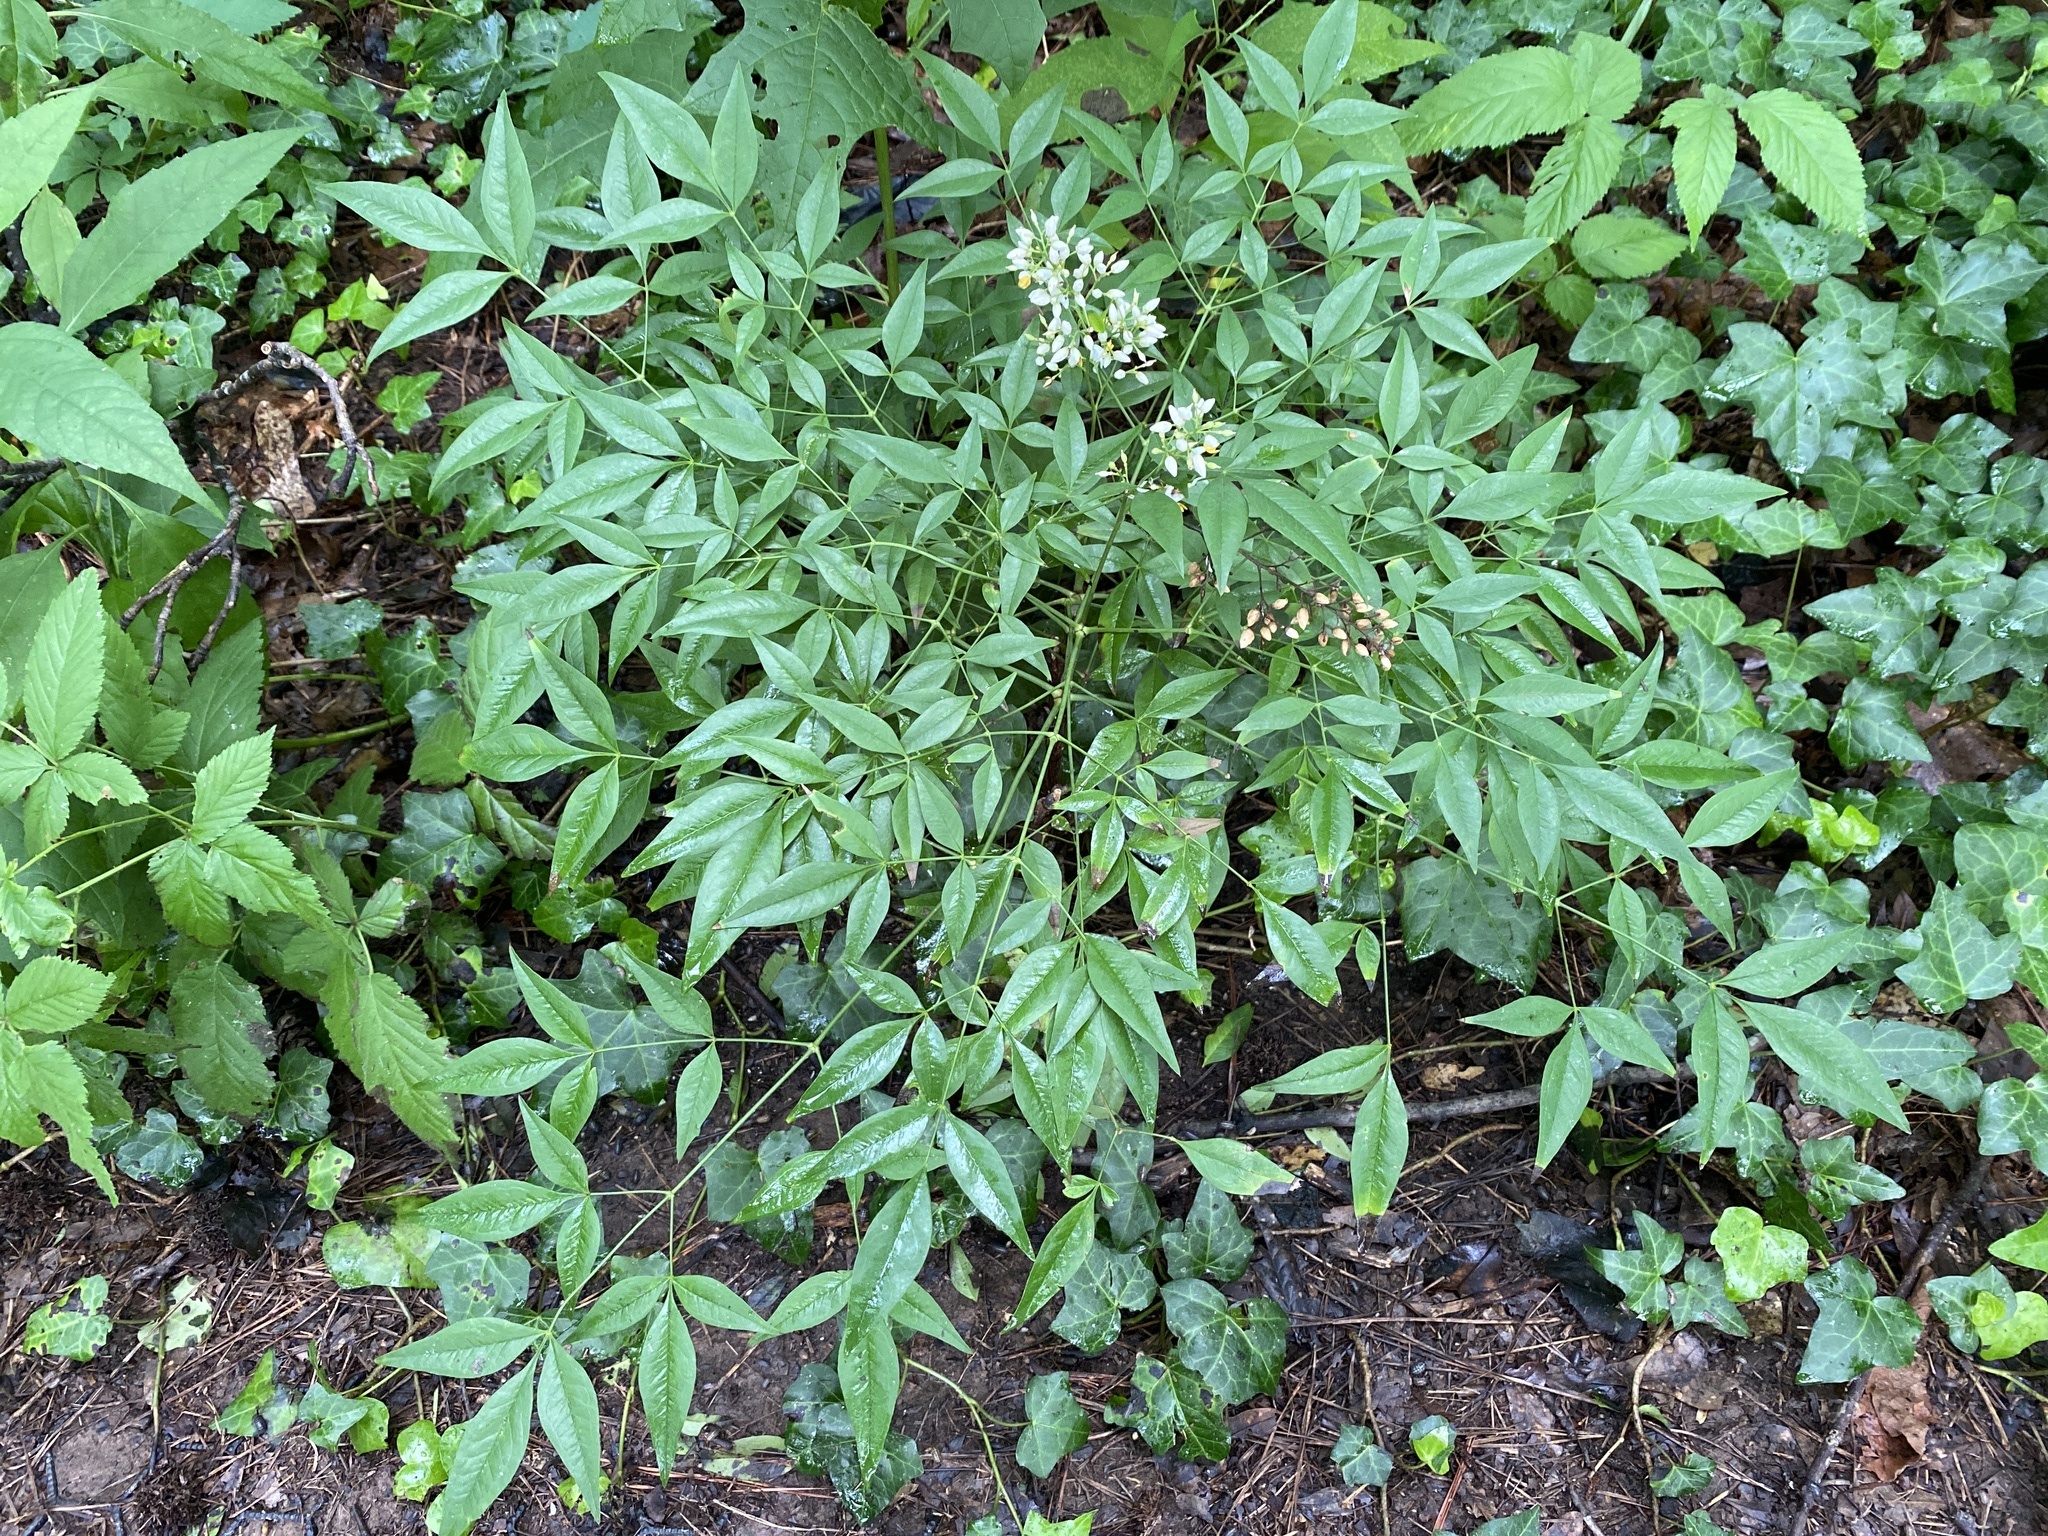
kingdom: Plantae
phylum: Tracheophyta
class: Magnoliopsida
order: Ranunculales
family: Berberidaceae
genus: Nandina
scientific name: Nandina domestica
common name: Sacred bamboo
